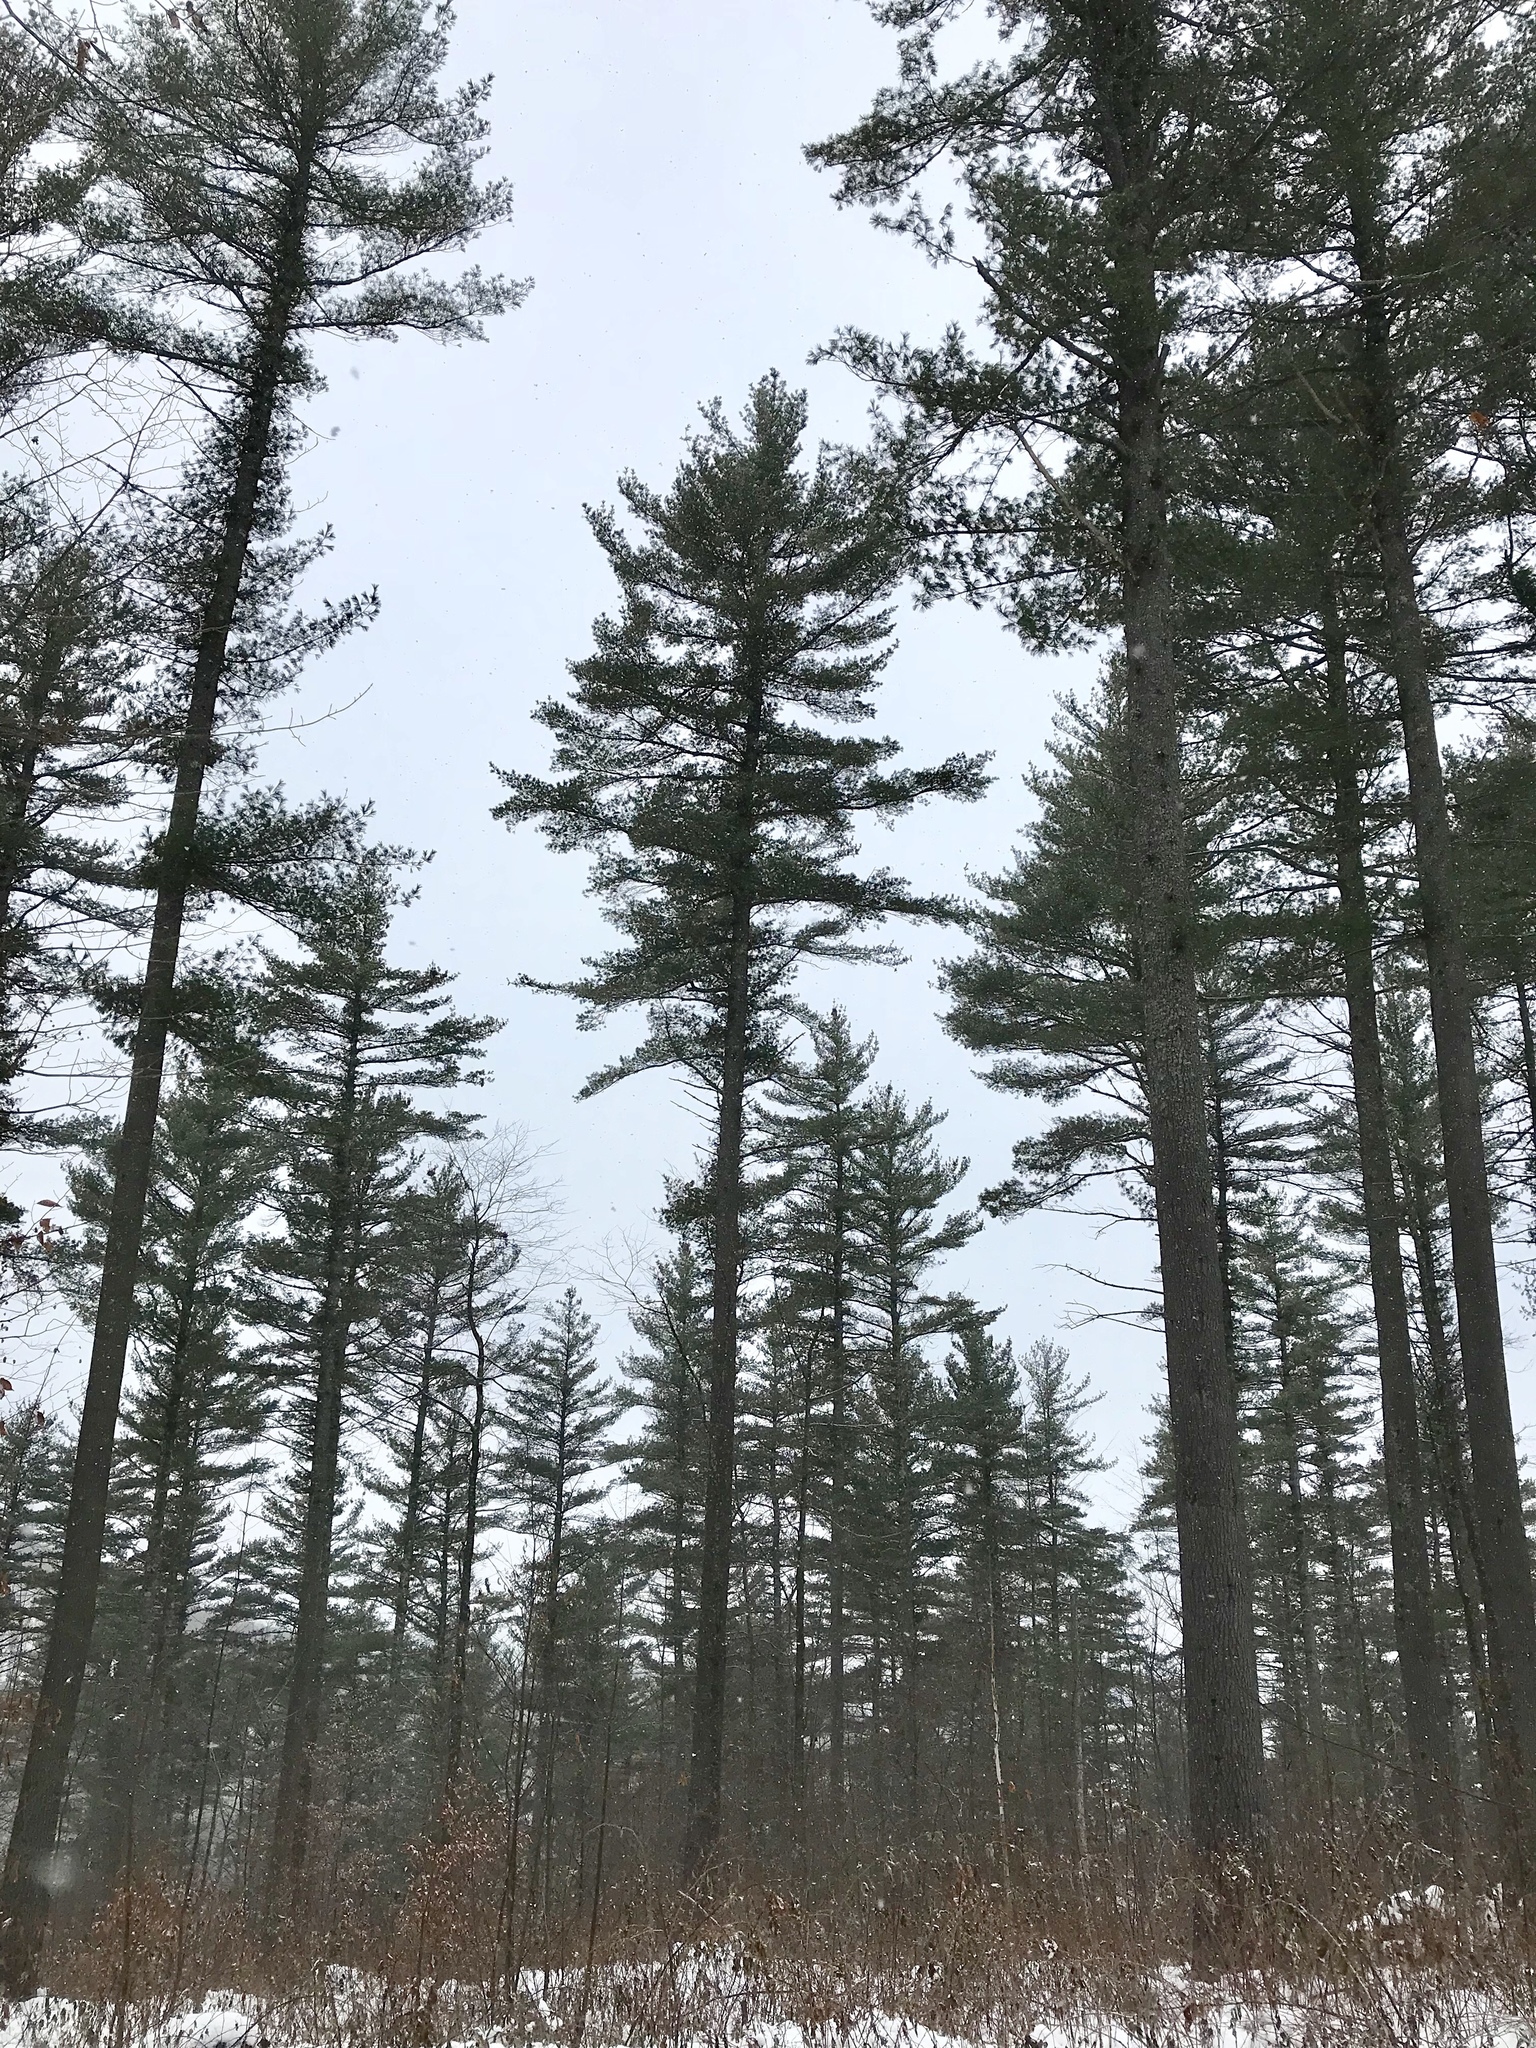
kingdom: Plantae
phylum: Tracheophyta
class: Pinopsida
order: Pinales
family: Pinaceae
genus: Pinus
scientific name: Pinus strobus
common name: Weymouth pine
